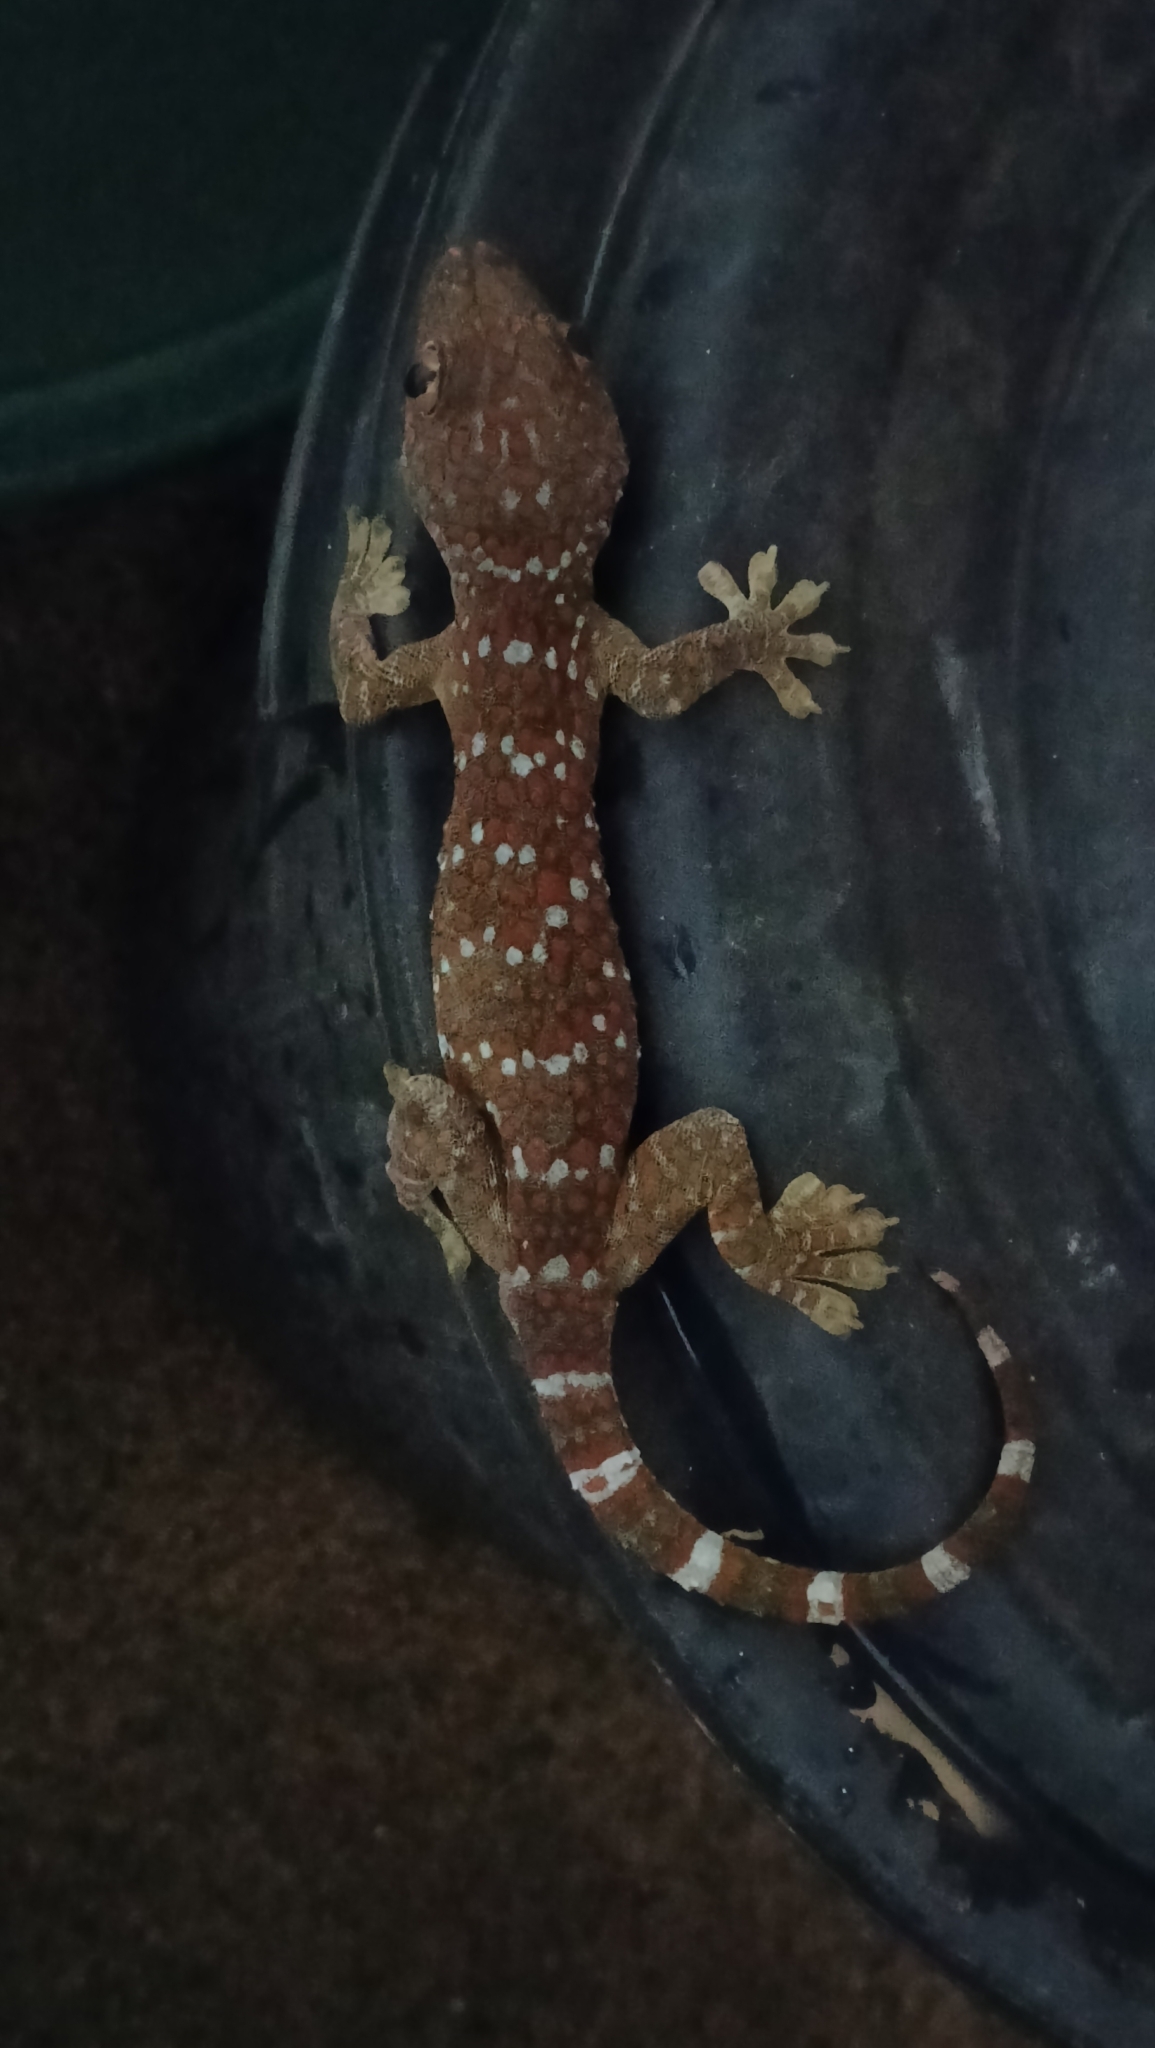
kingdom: Animalia
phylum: Chordata
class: Squamata
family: Gekkonidae
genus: Gekko
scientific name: Gekko gecko
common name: Tokay gecko
